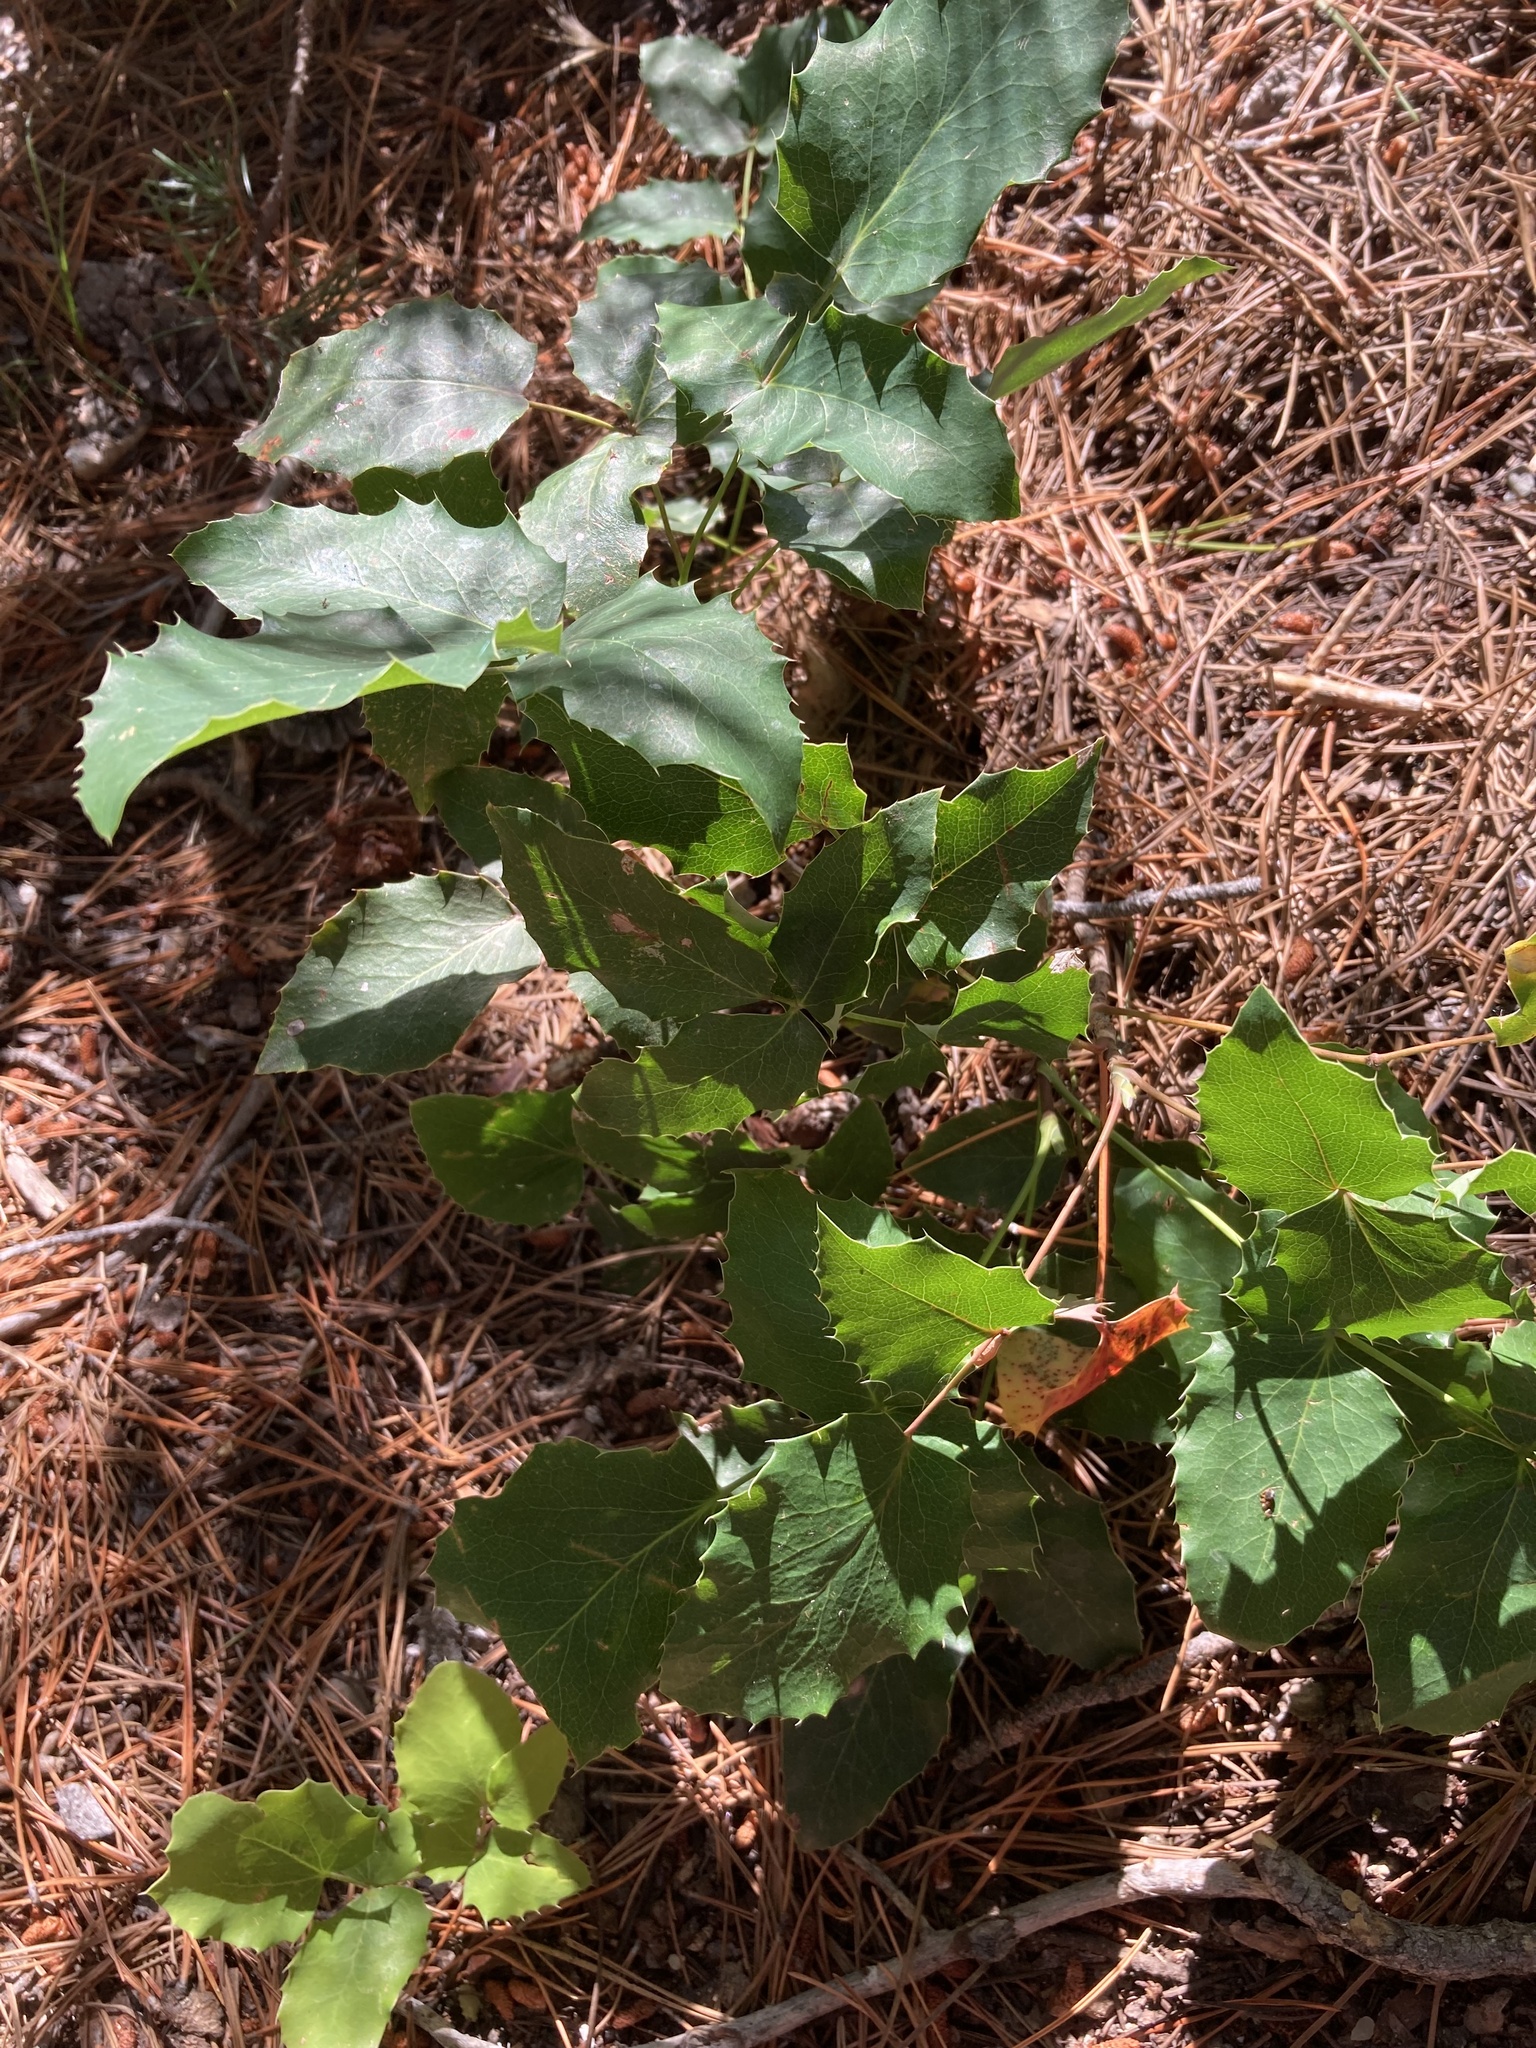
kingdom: Plantae
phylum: Tracheophyta
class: Magnoliopsida
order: Ranunculales
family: Berberidaceae
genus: Mahonia
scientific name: Mahonia repens
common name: Creeping oregon-grape
